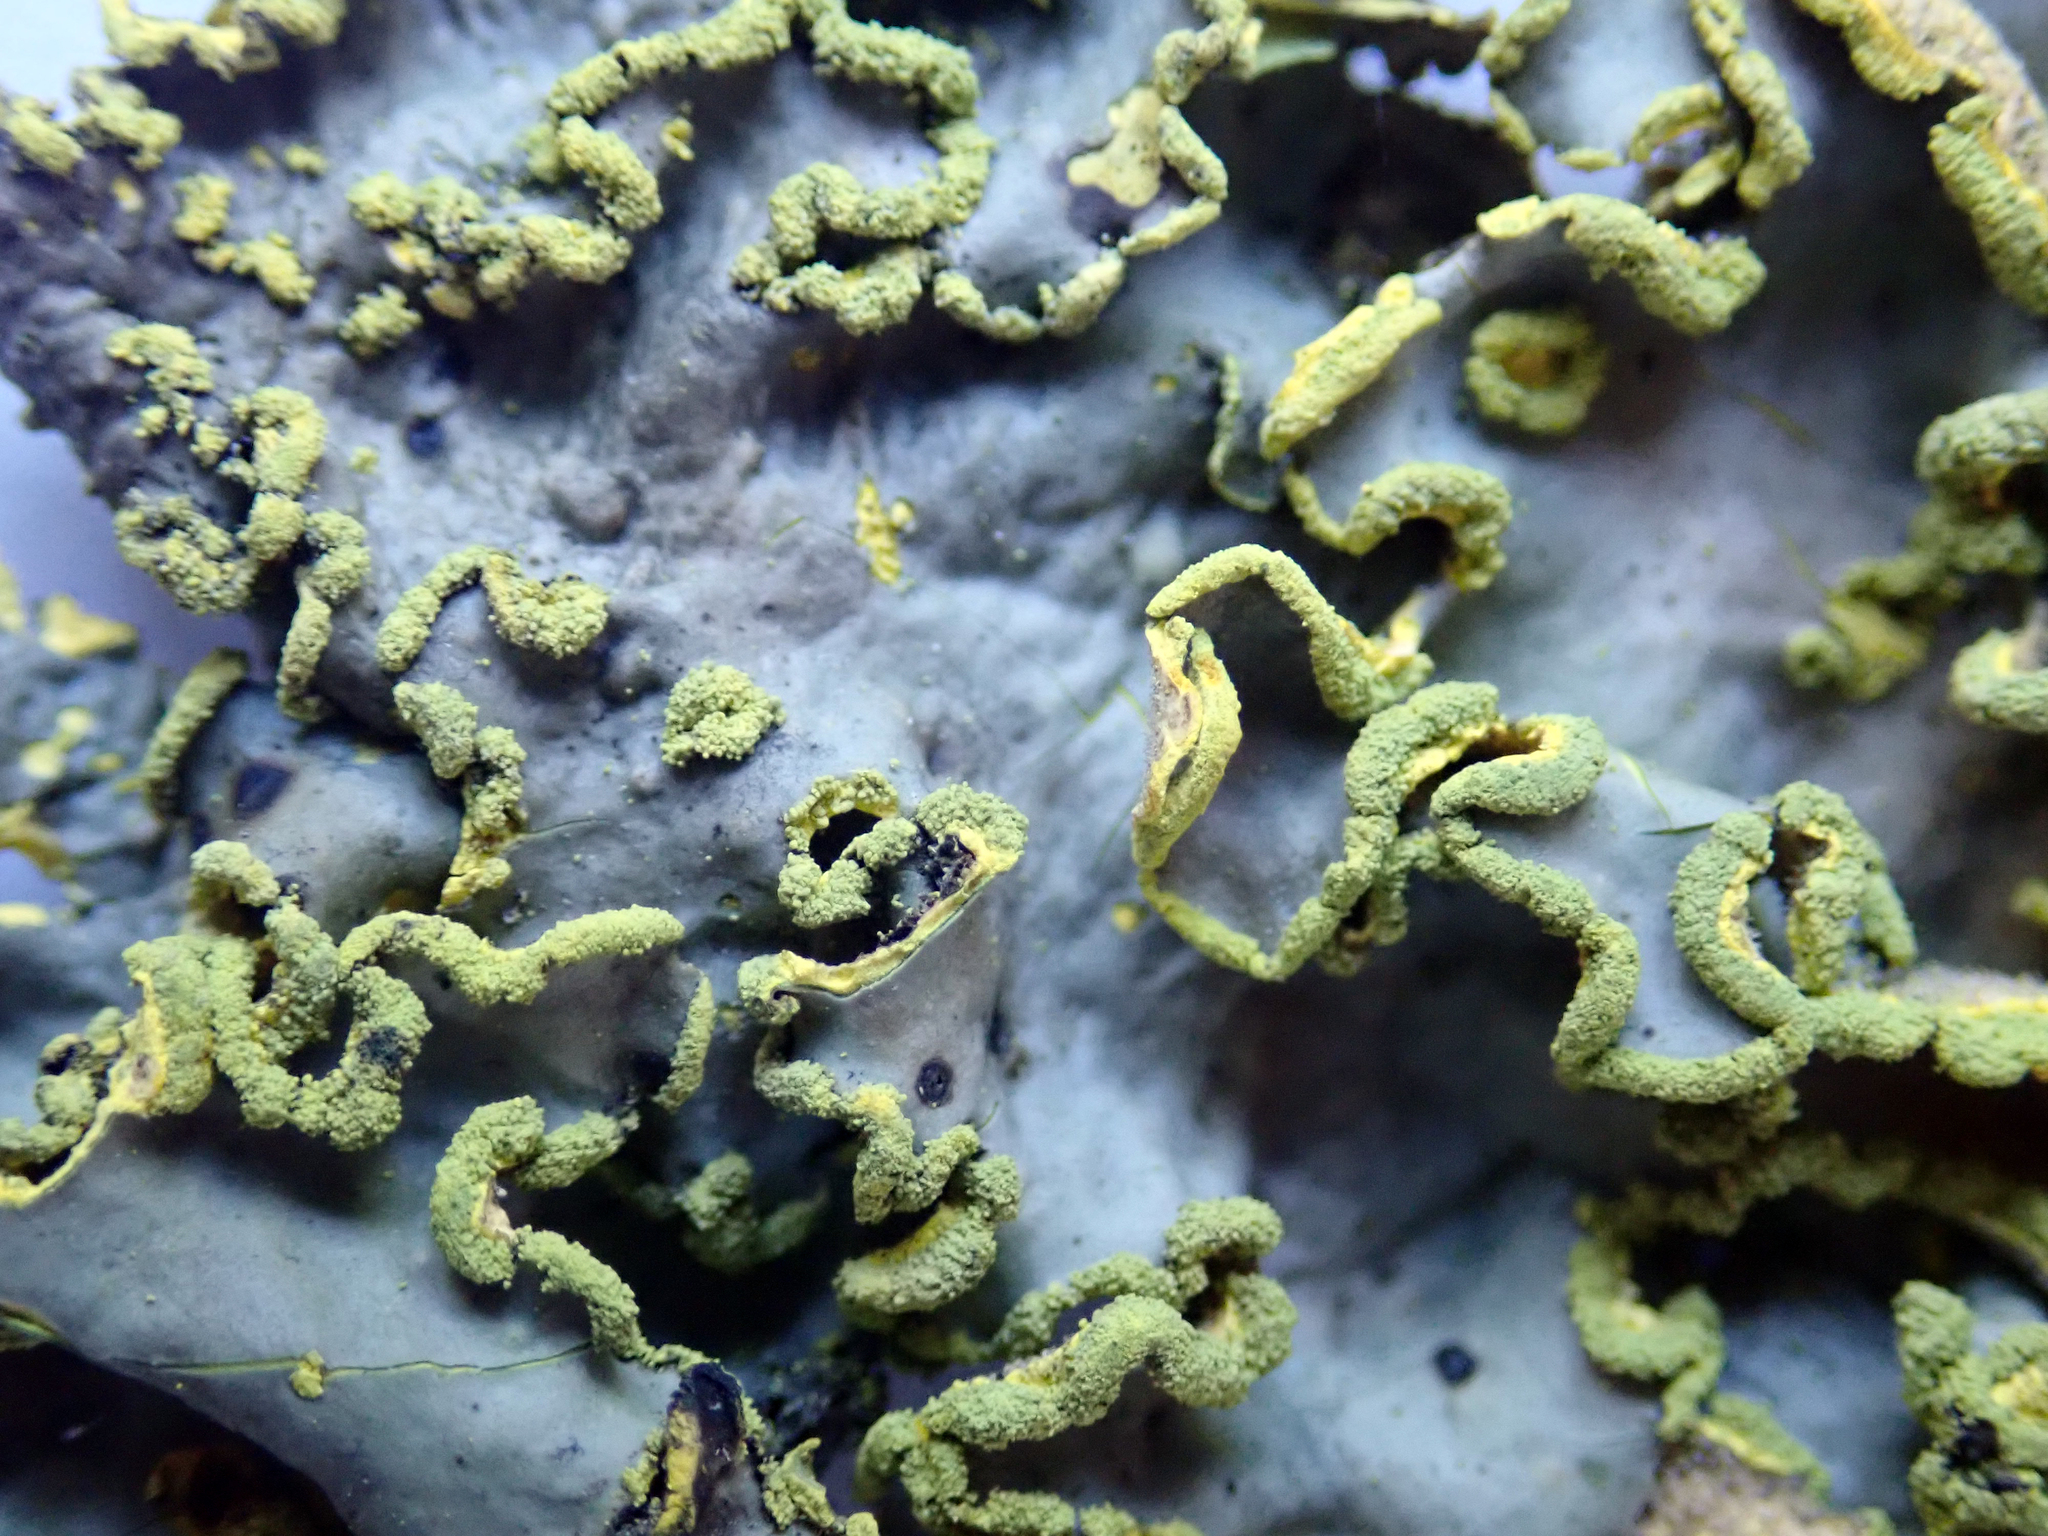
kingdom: Fungi
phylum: Ascomycota
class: Lecanoromycetes
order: Peltigerales
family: Lobariaceae
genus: Pseudocyphellaria
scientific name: Pseudocyphellaria aurata
